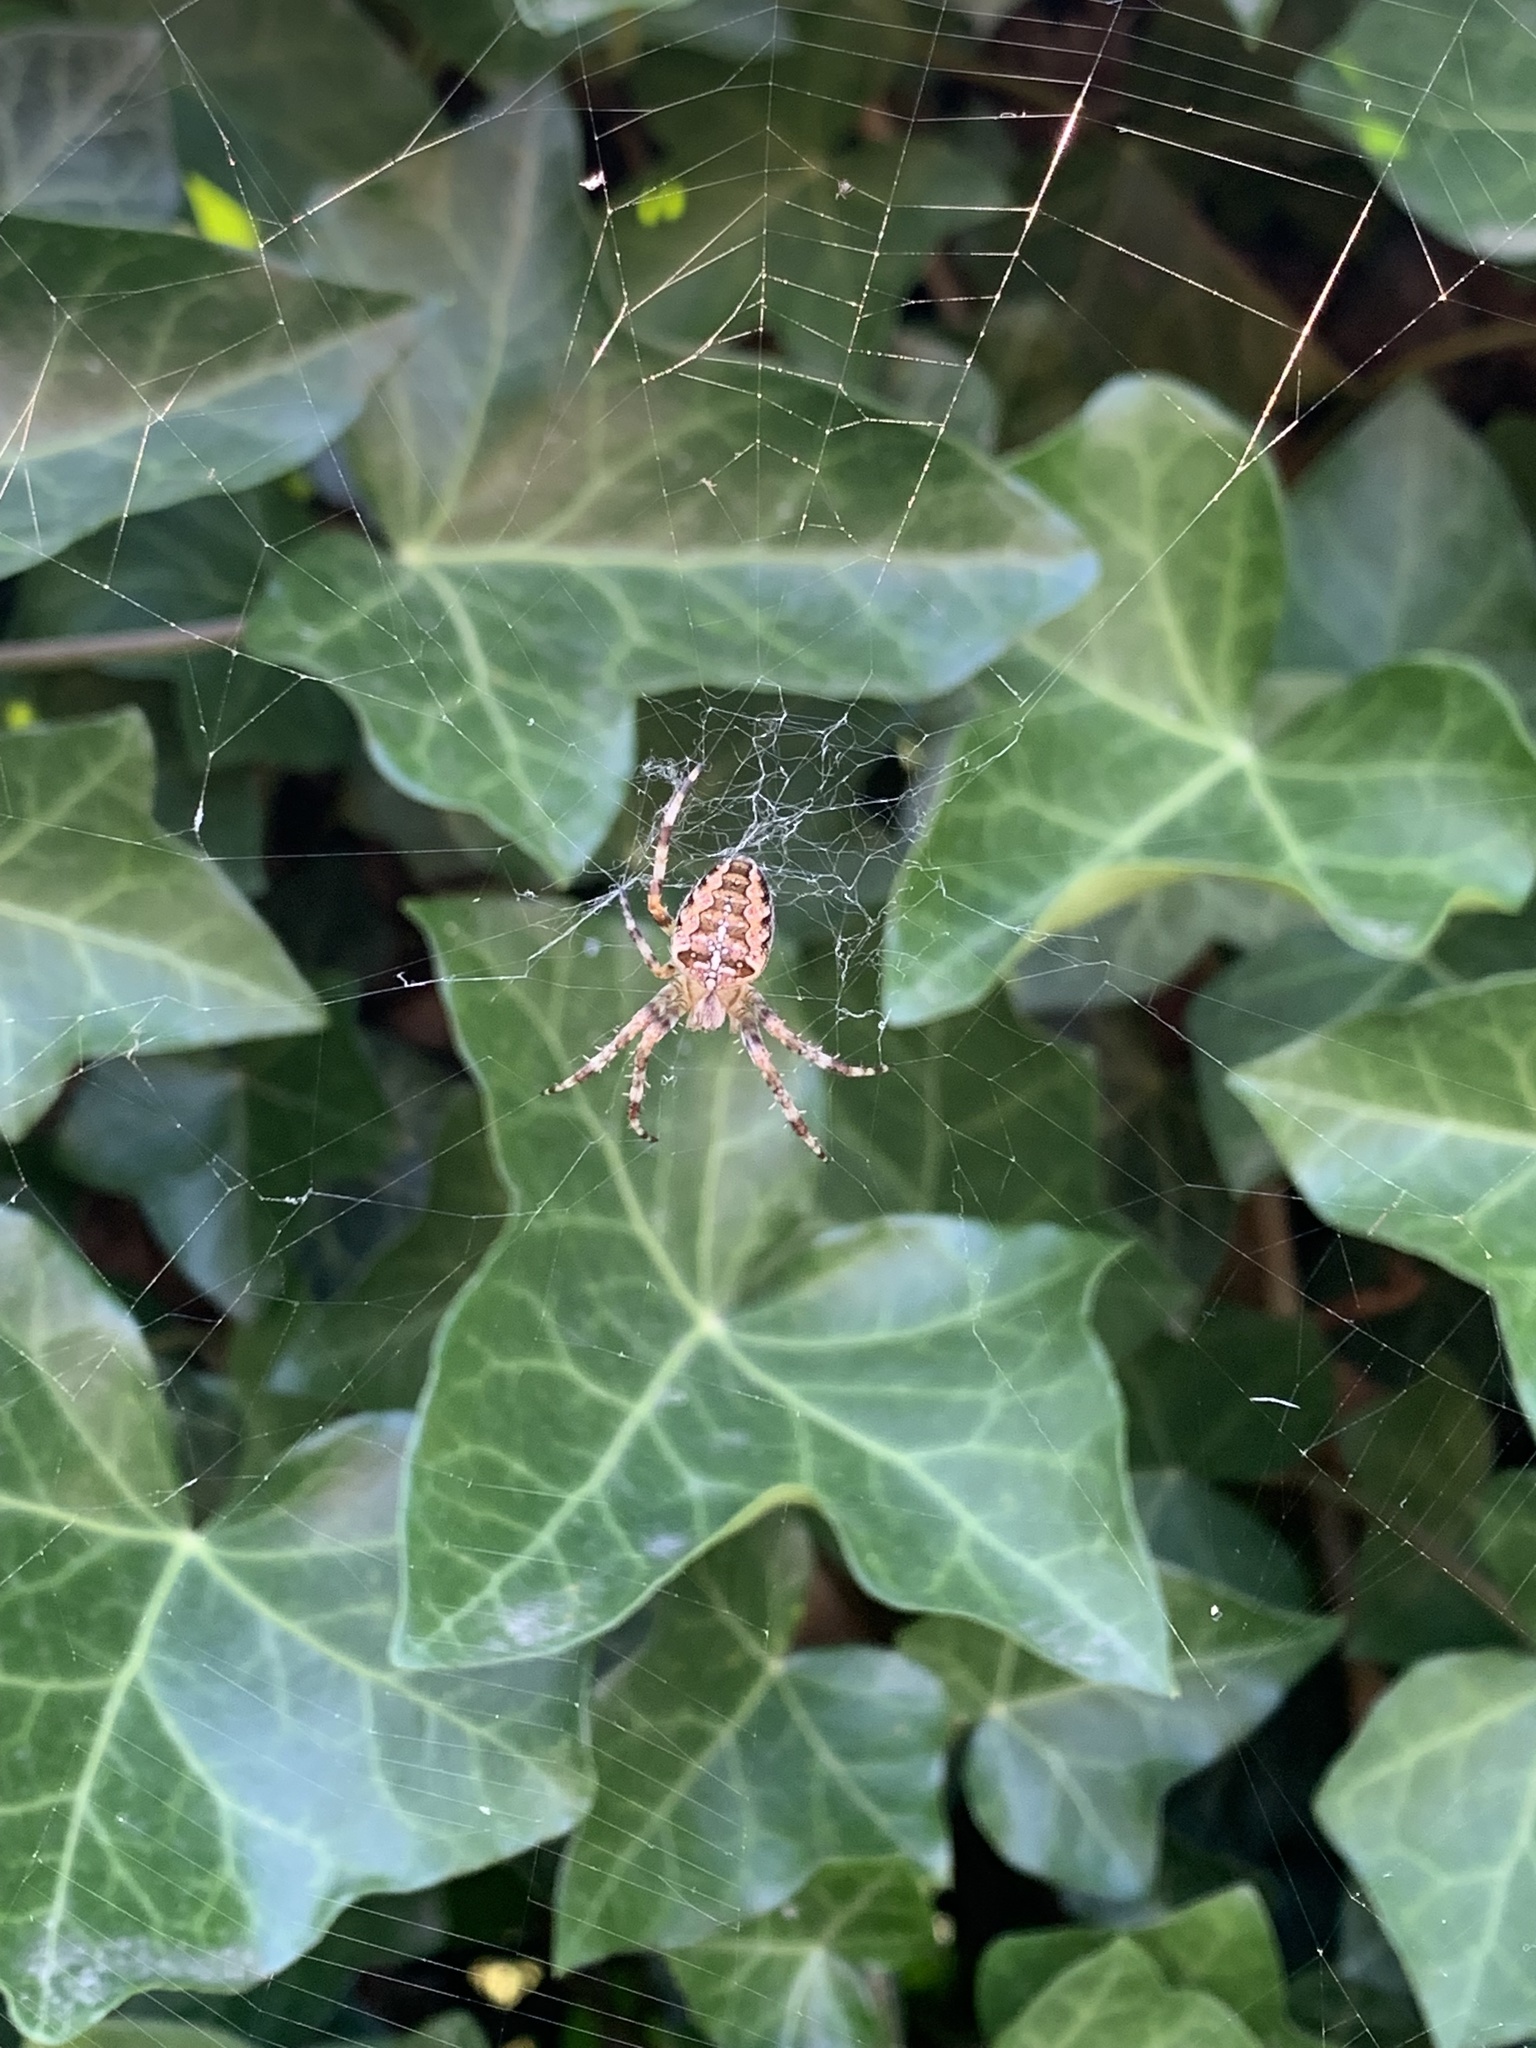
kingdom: Animalia
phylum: Arthropoda
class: Arachnida
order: Araneae
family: Araneidae
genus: Araneus
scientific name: Araneus diadematus
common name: Cross orbweaver
